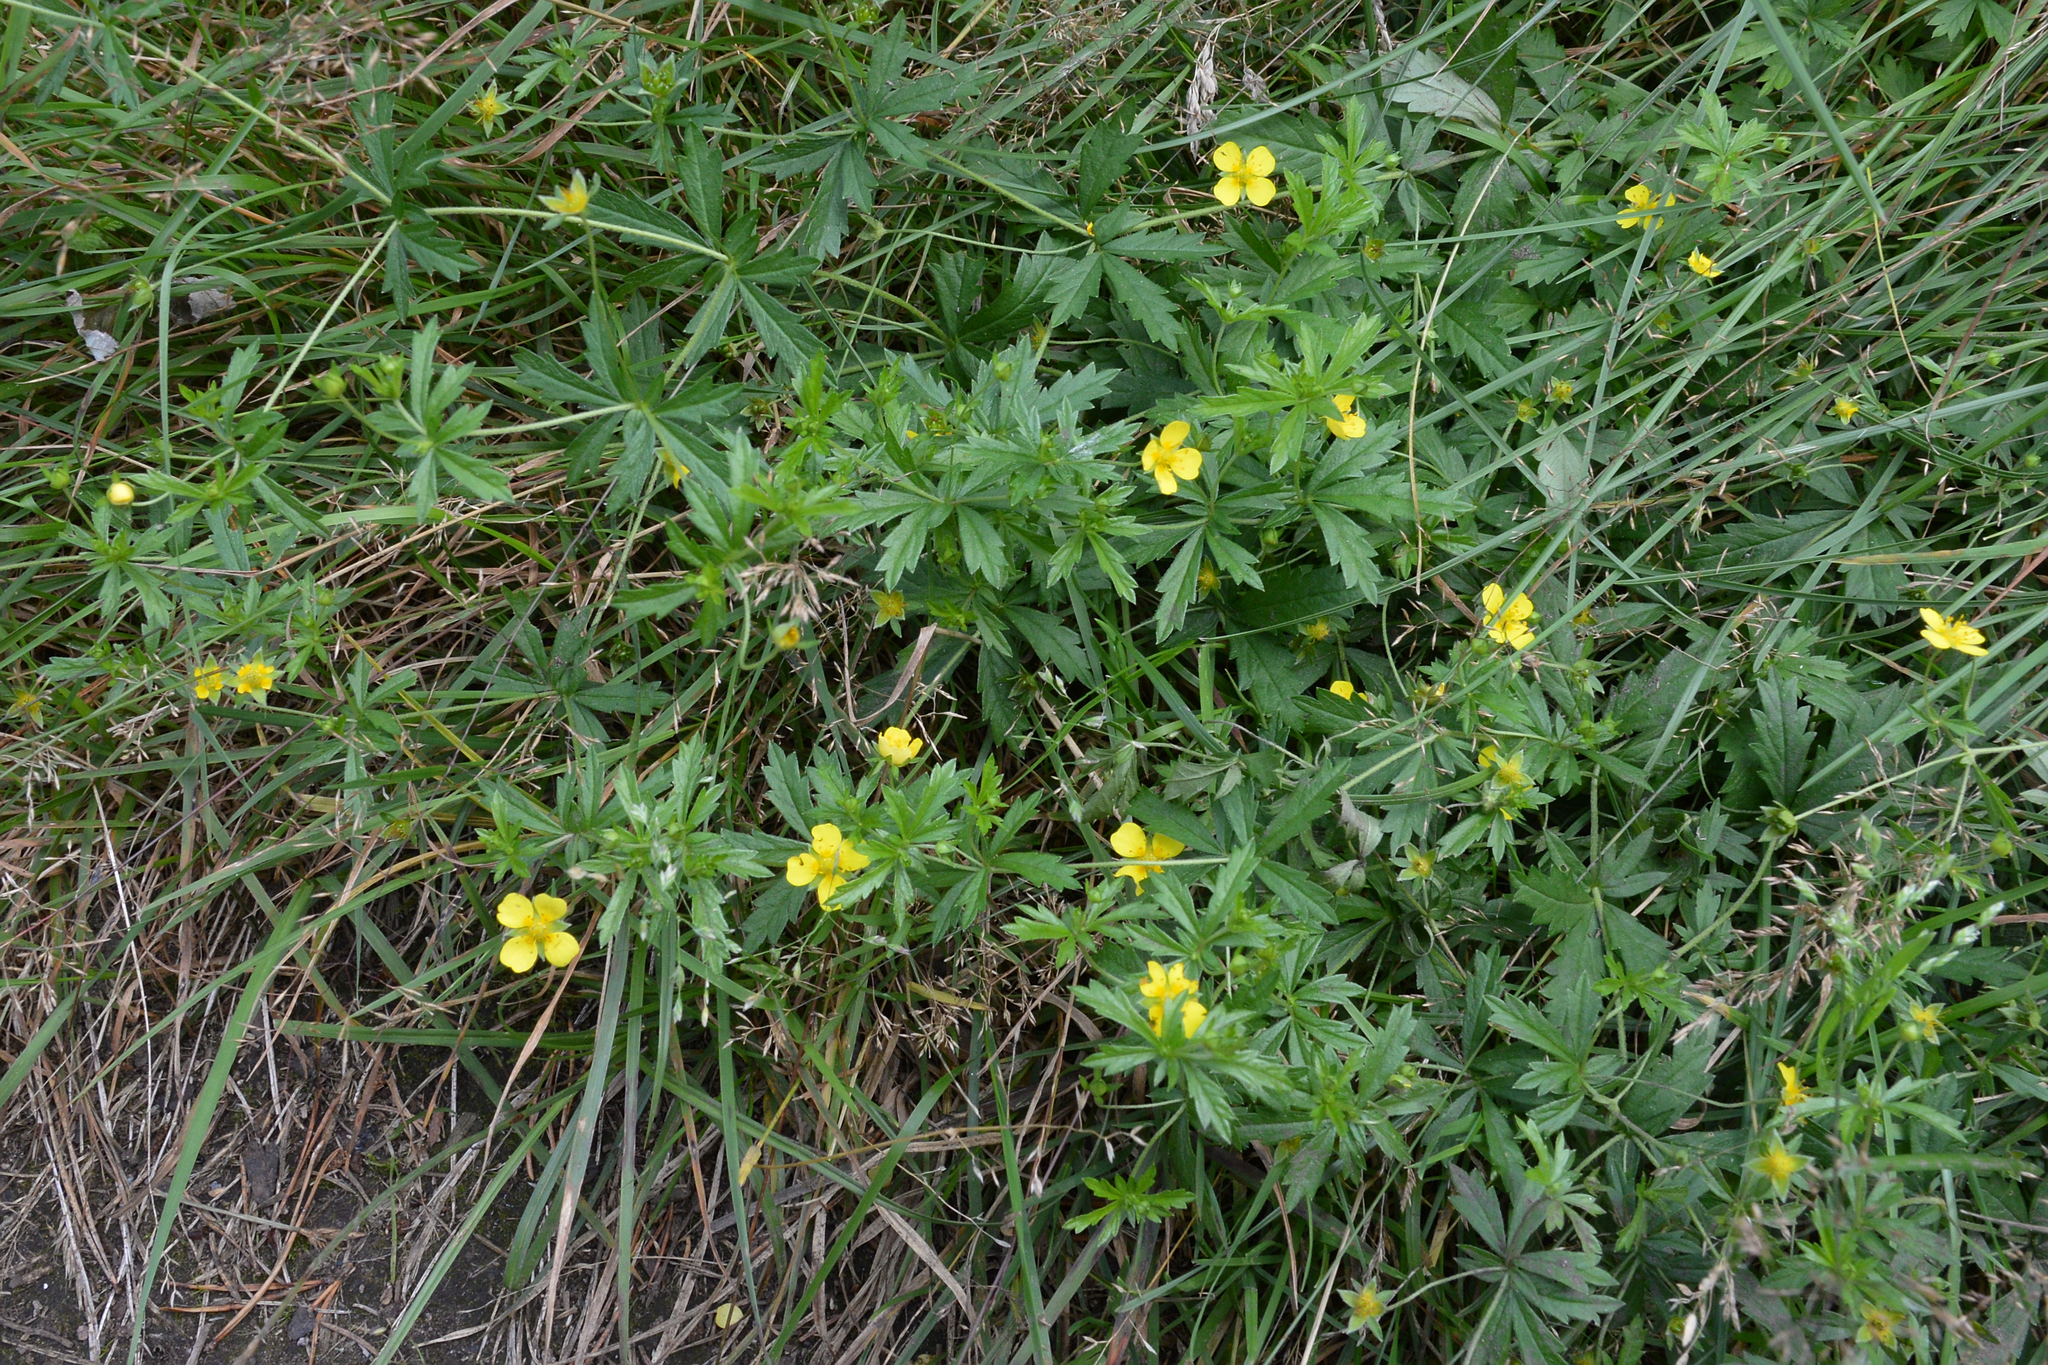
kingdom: Plantae
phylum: Tracheophyta
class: Magnoliopsida
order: Rosales
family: Rosaceae
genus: Potentilla
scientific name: Potentilla erecta
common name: Tormentil
